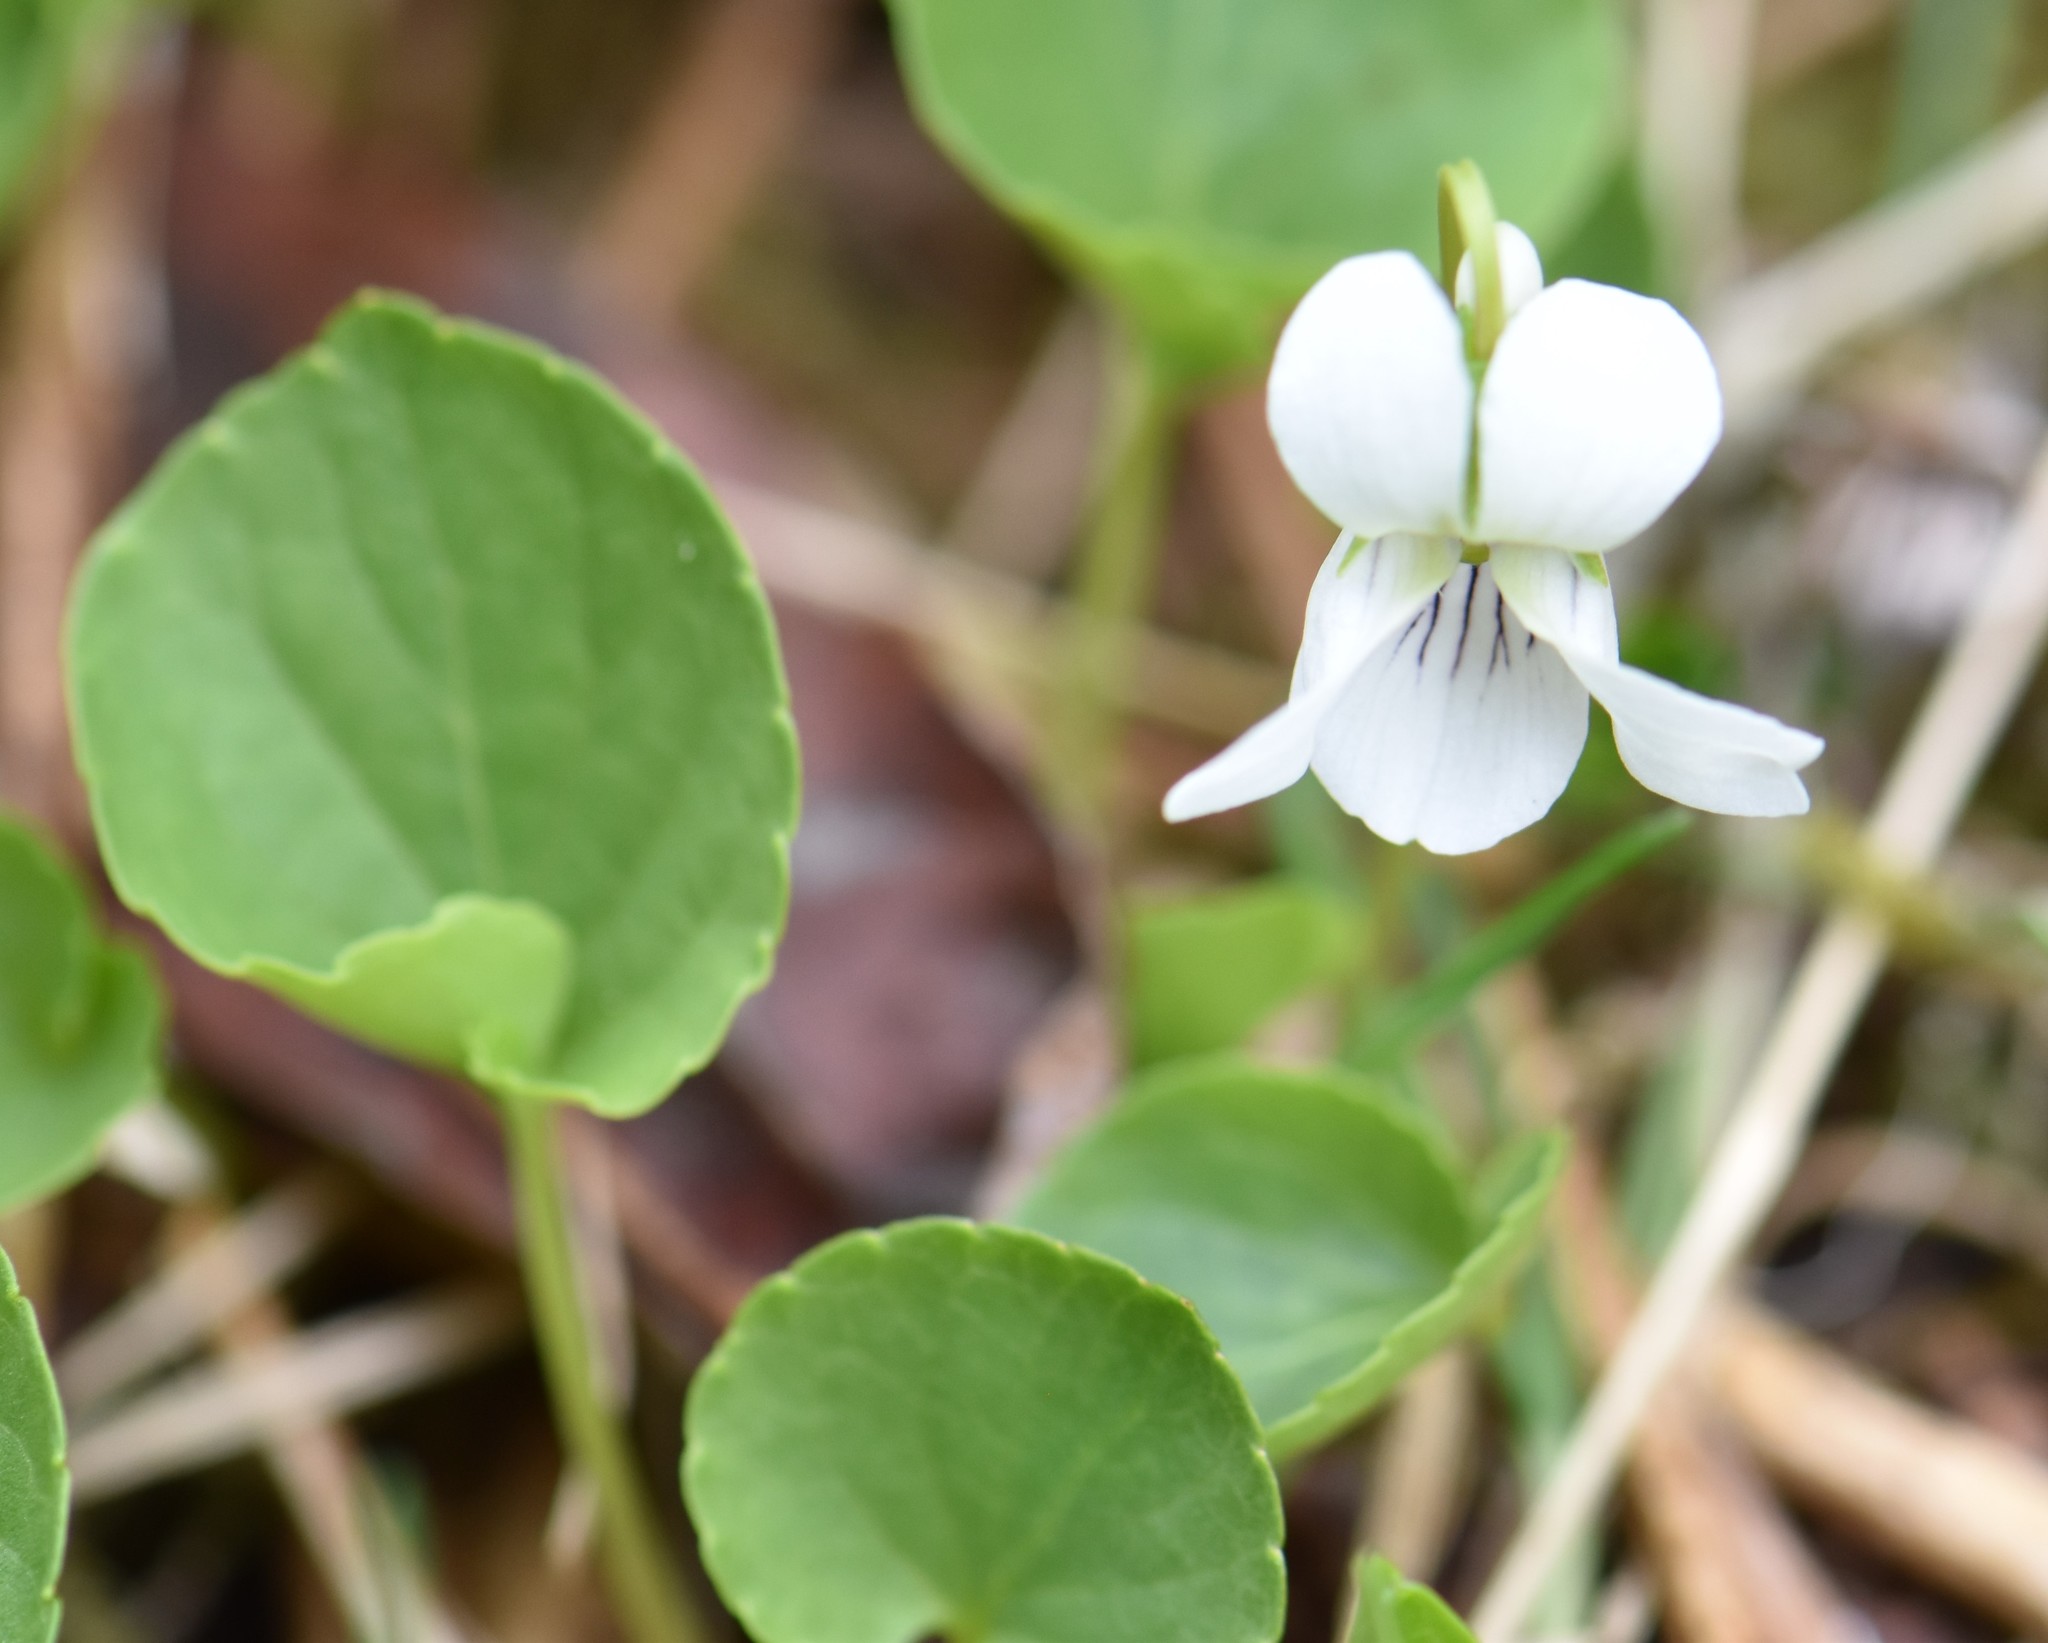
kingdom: Plantae
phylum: Tracheophyta
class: Magnoliopsida
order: Malpighiales
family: Violaceae
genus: Viola
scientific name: Viola renifolia
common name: Kidney-leaf violet
